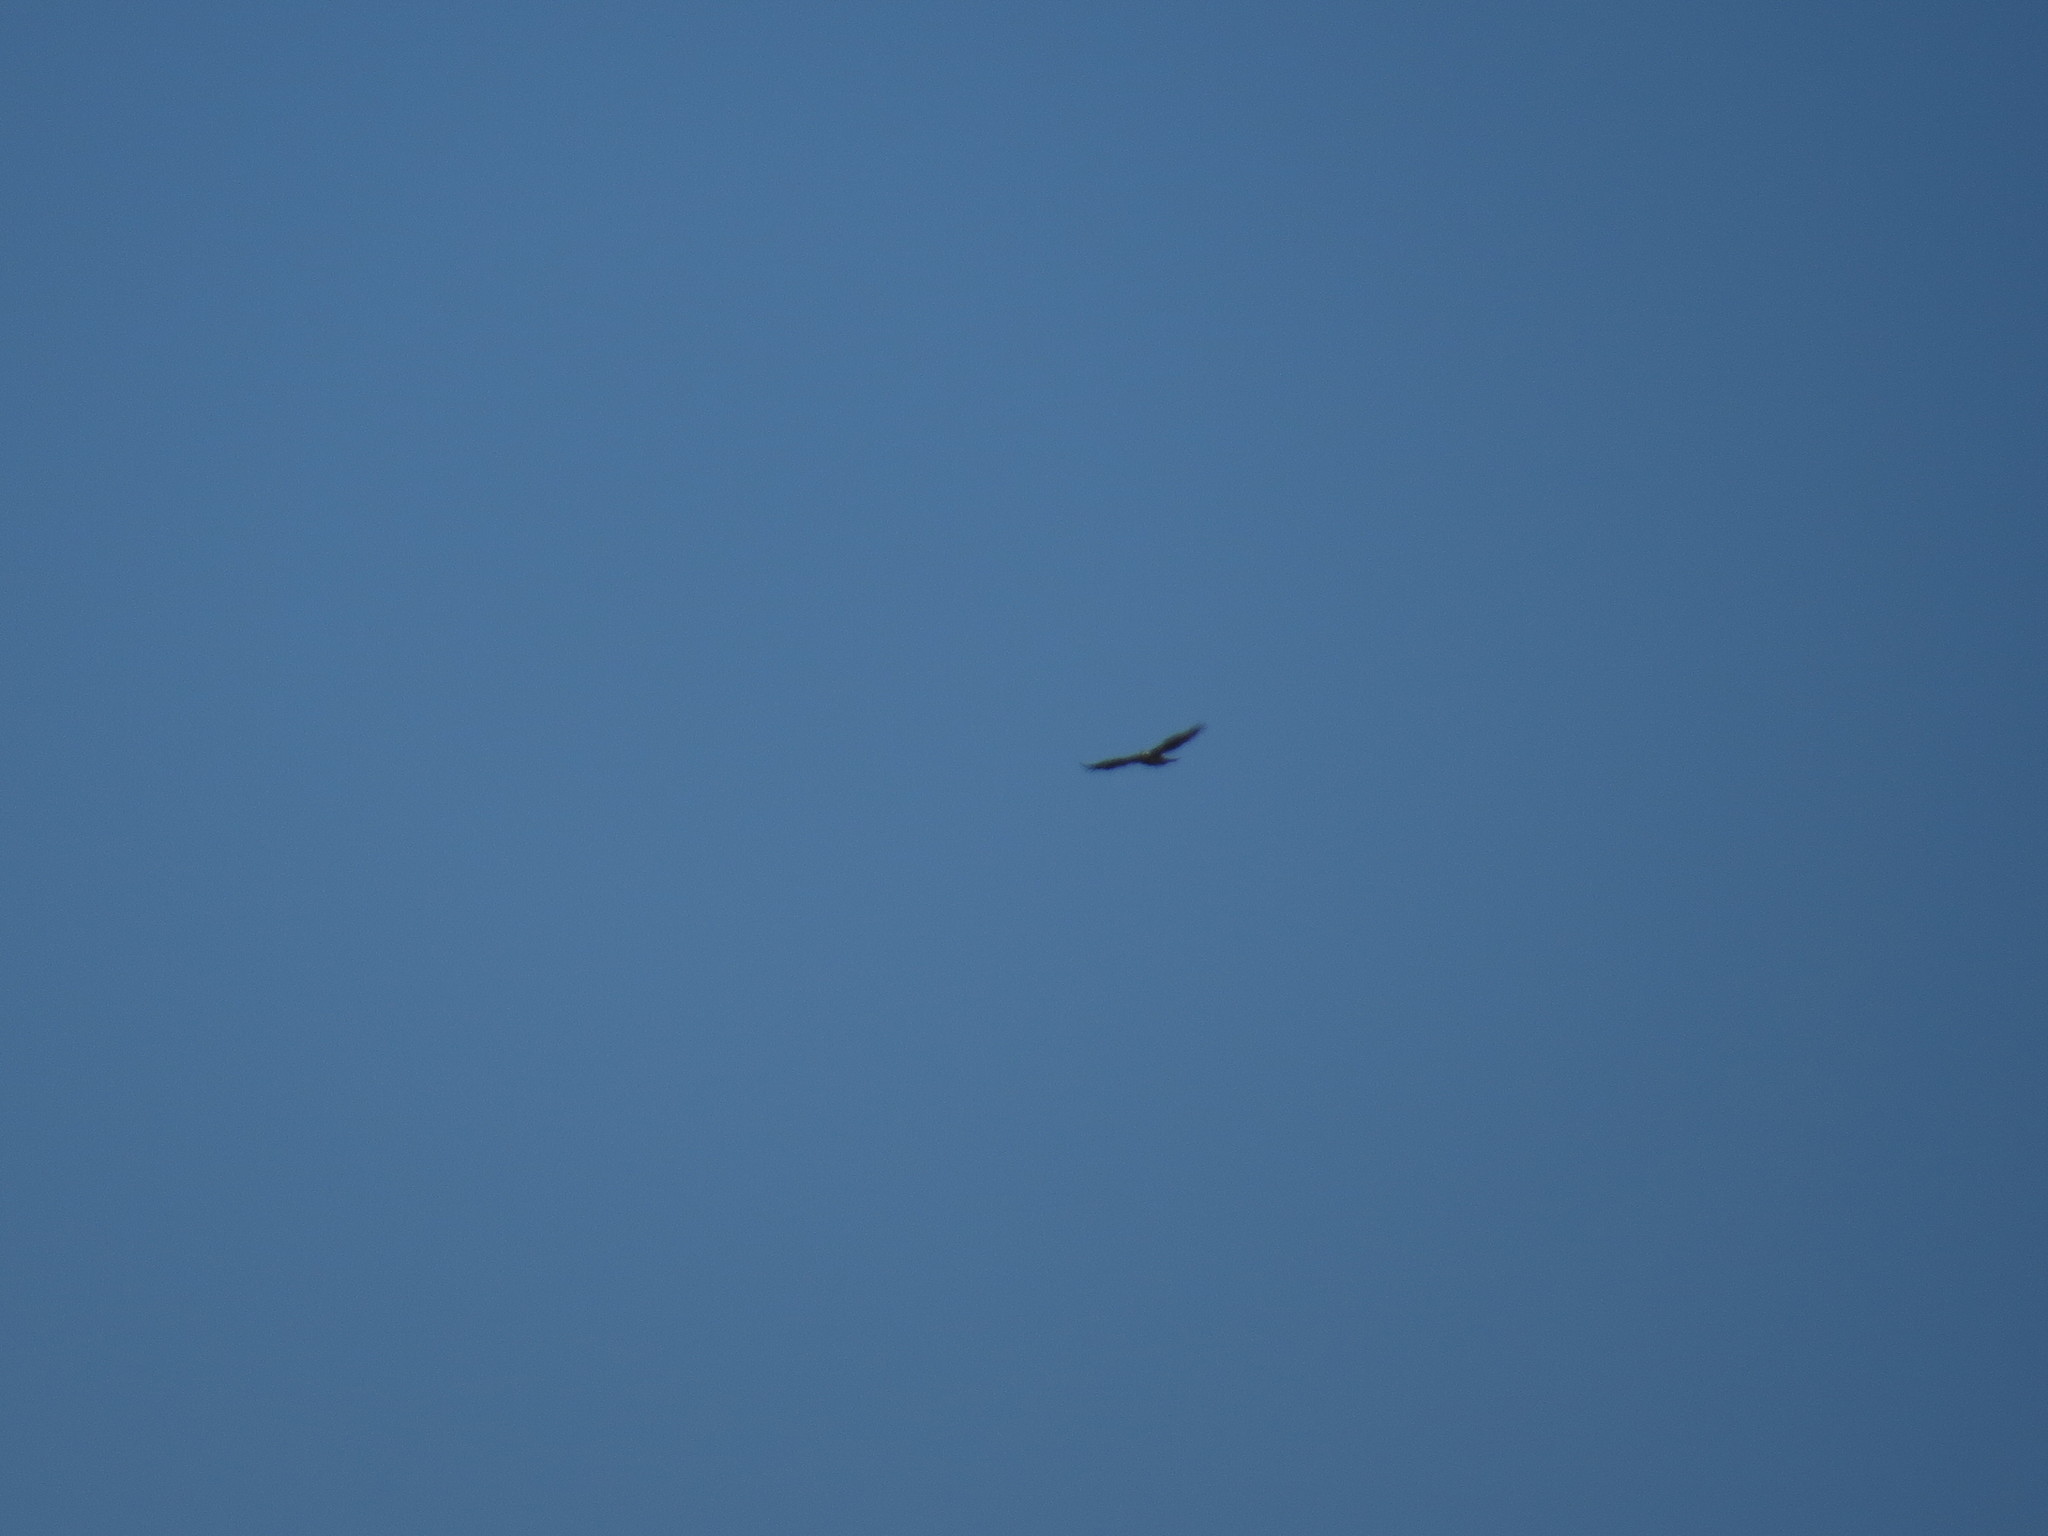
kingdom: Animalia
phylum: Chordata
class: Aves
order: Accipitriformes
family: Accipitridae
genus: Aquila
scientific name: Aquila fasciata
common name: Bonelli's eagle
